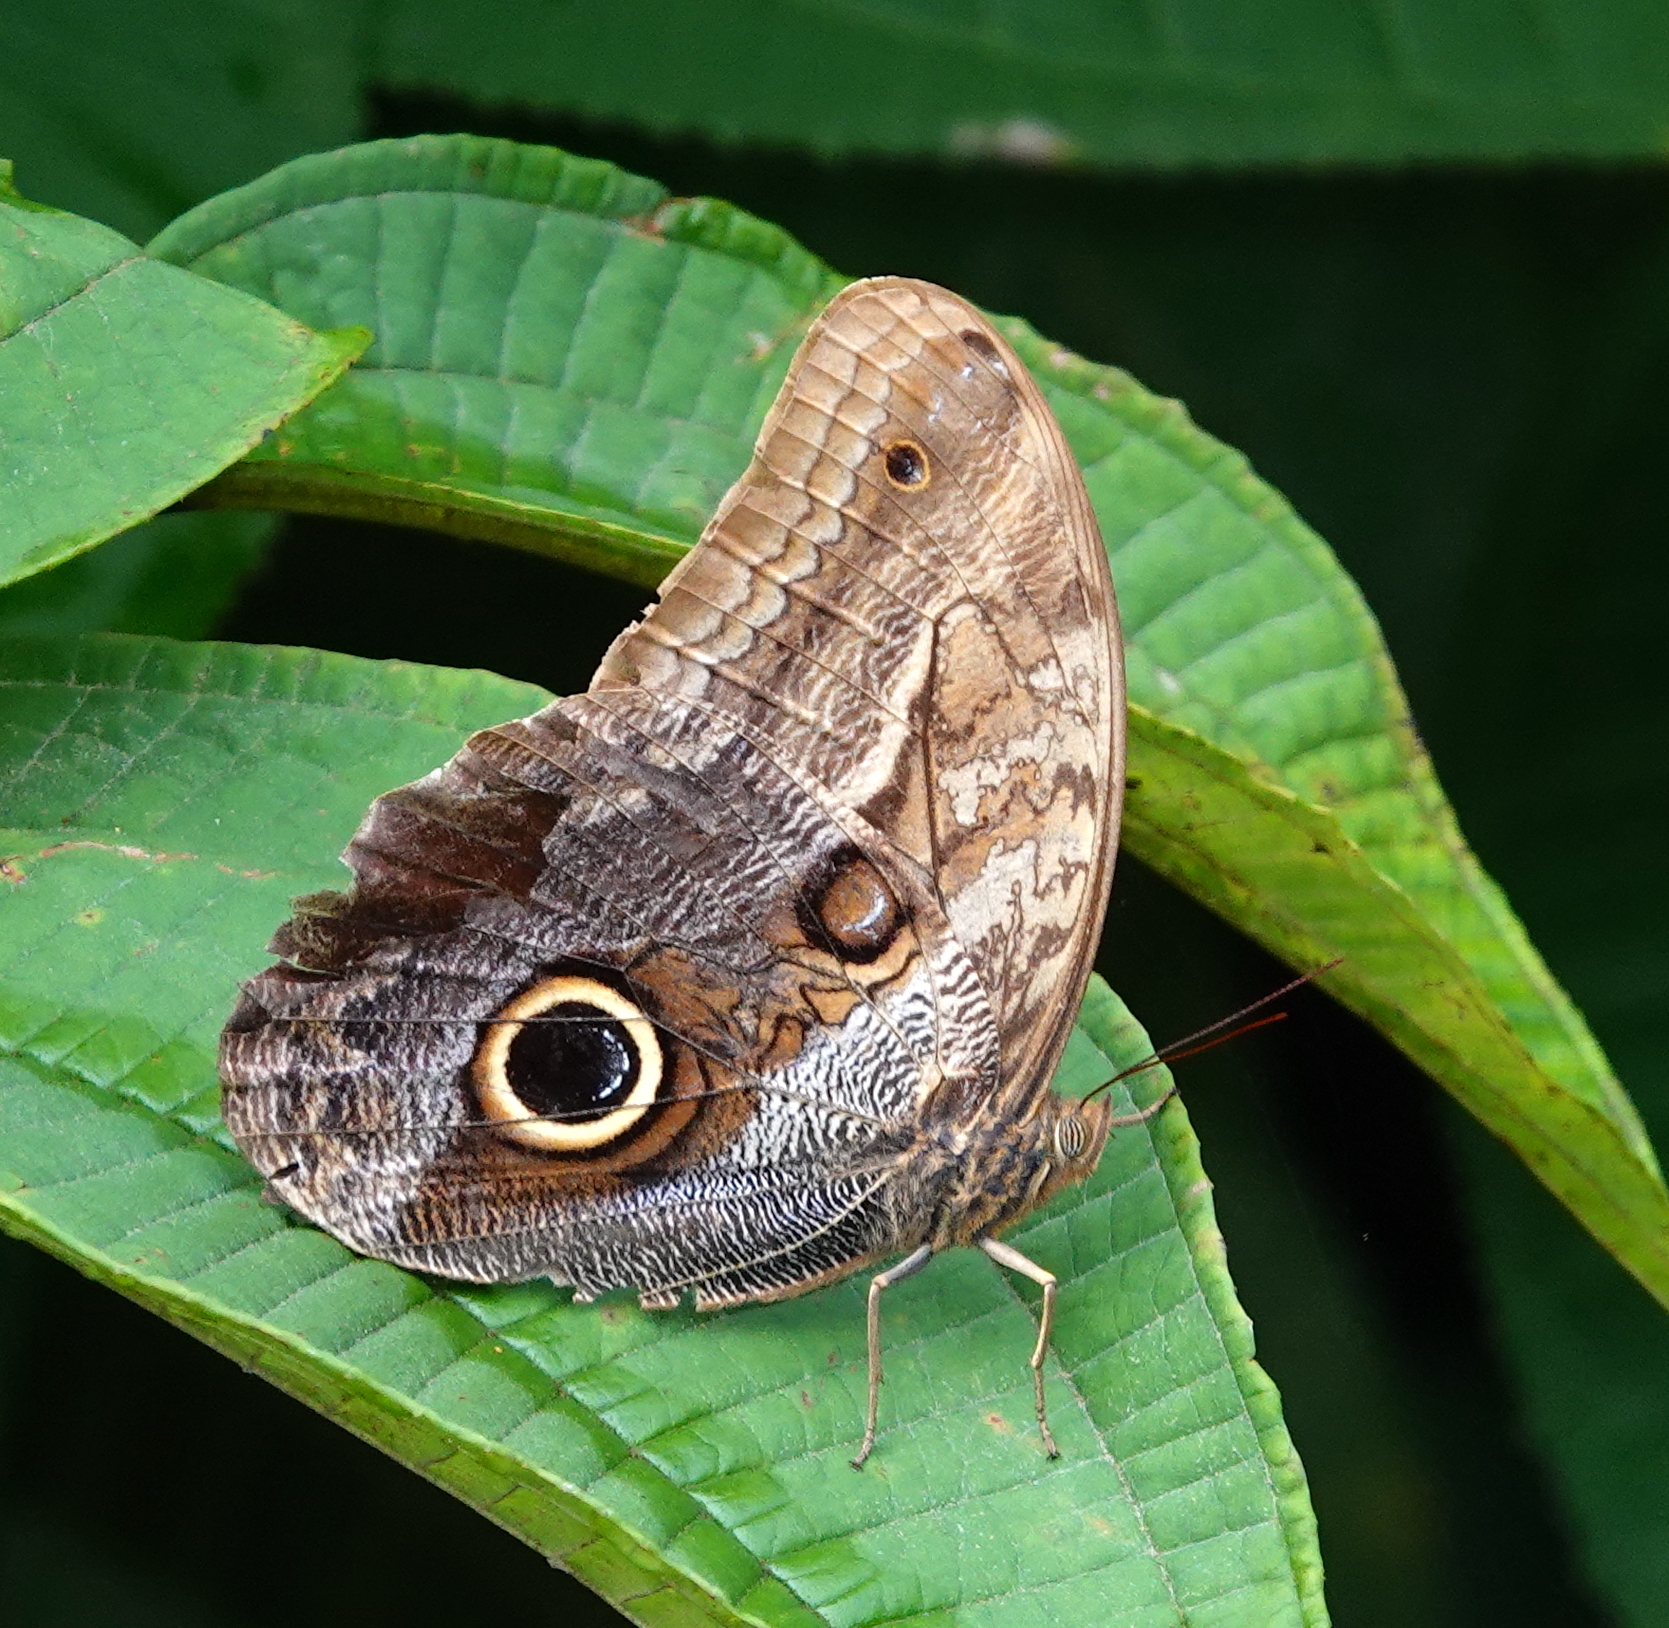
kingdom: Animalia
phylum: Arthropoda
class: Insecta
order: Lepidoptera
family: Nymphalidae
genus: Caligo
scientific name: Caligo oedipus
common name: Fruhstorfer's owl-butterfly
